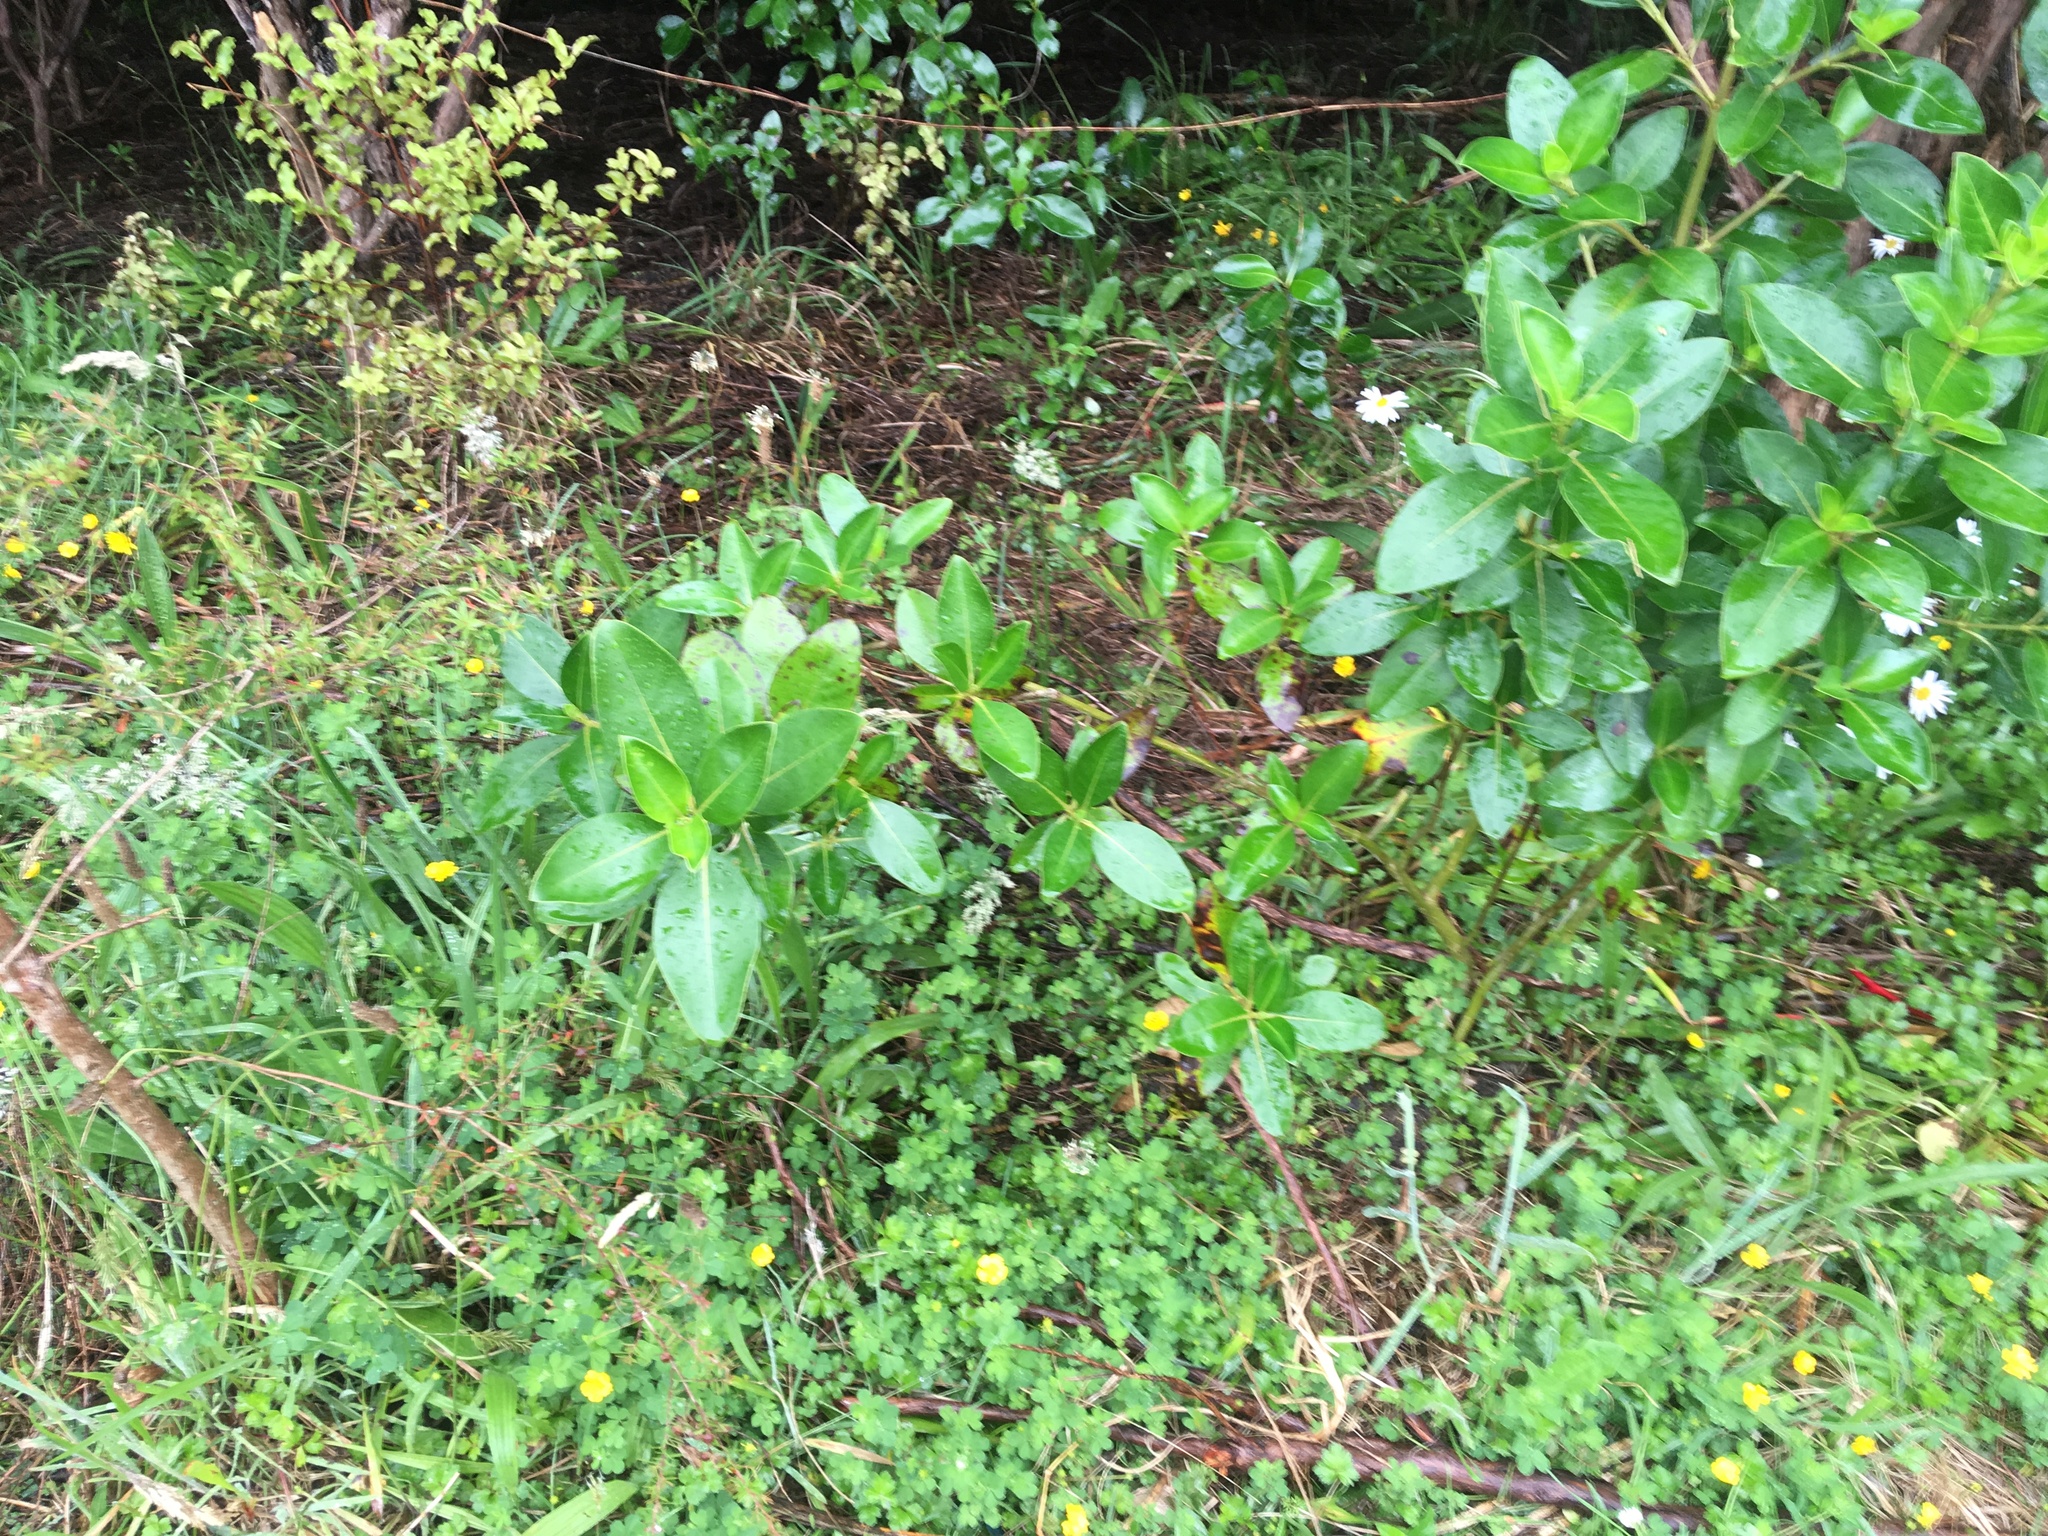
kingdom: Plantae
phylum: Tracheophyta
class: Magnoliopsida
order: Fabales
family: Fabaceae
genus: Lotus
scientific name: Lotus pedunculatus
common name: Greater birdsfoot-trefoil
